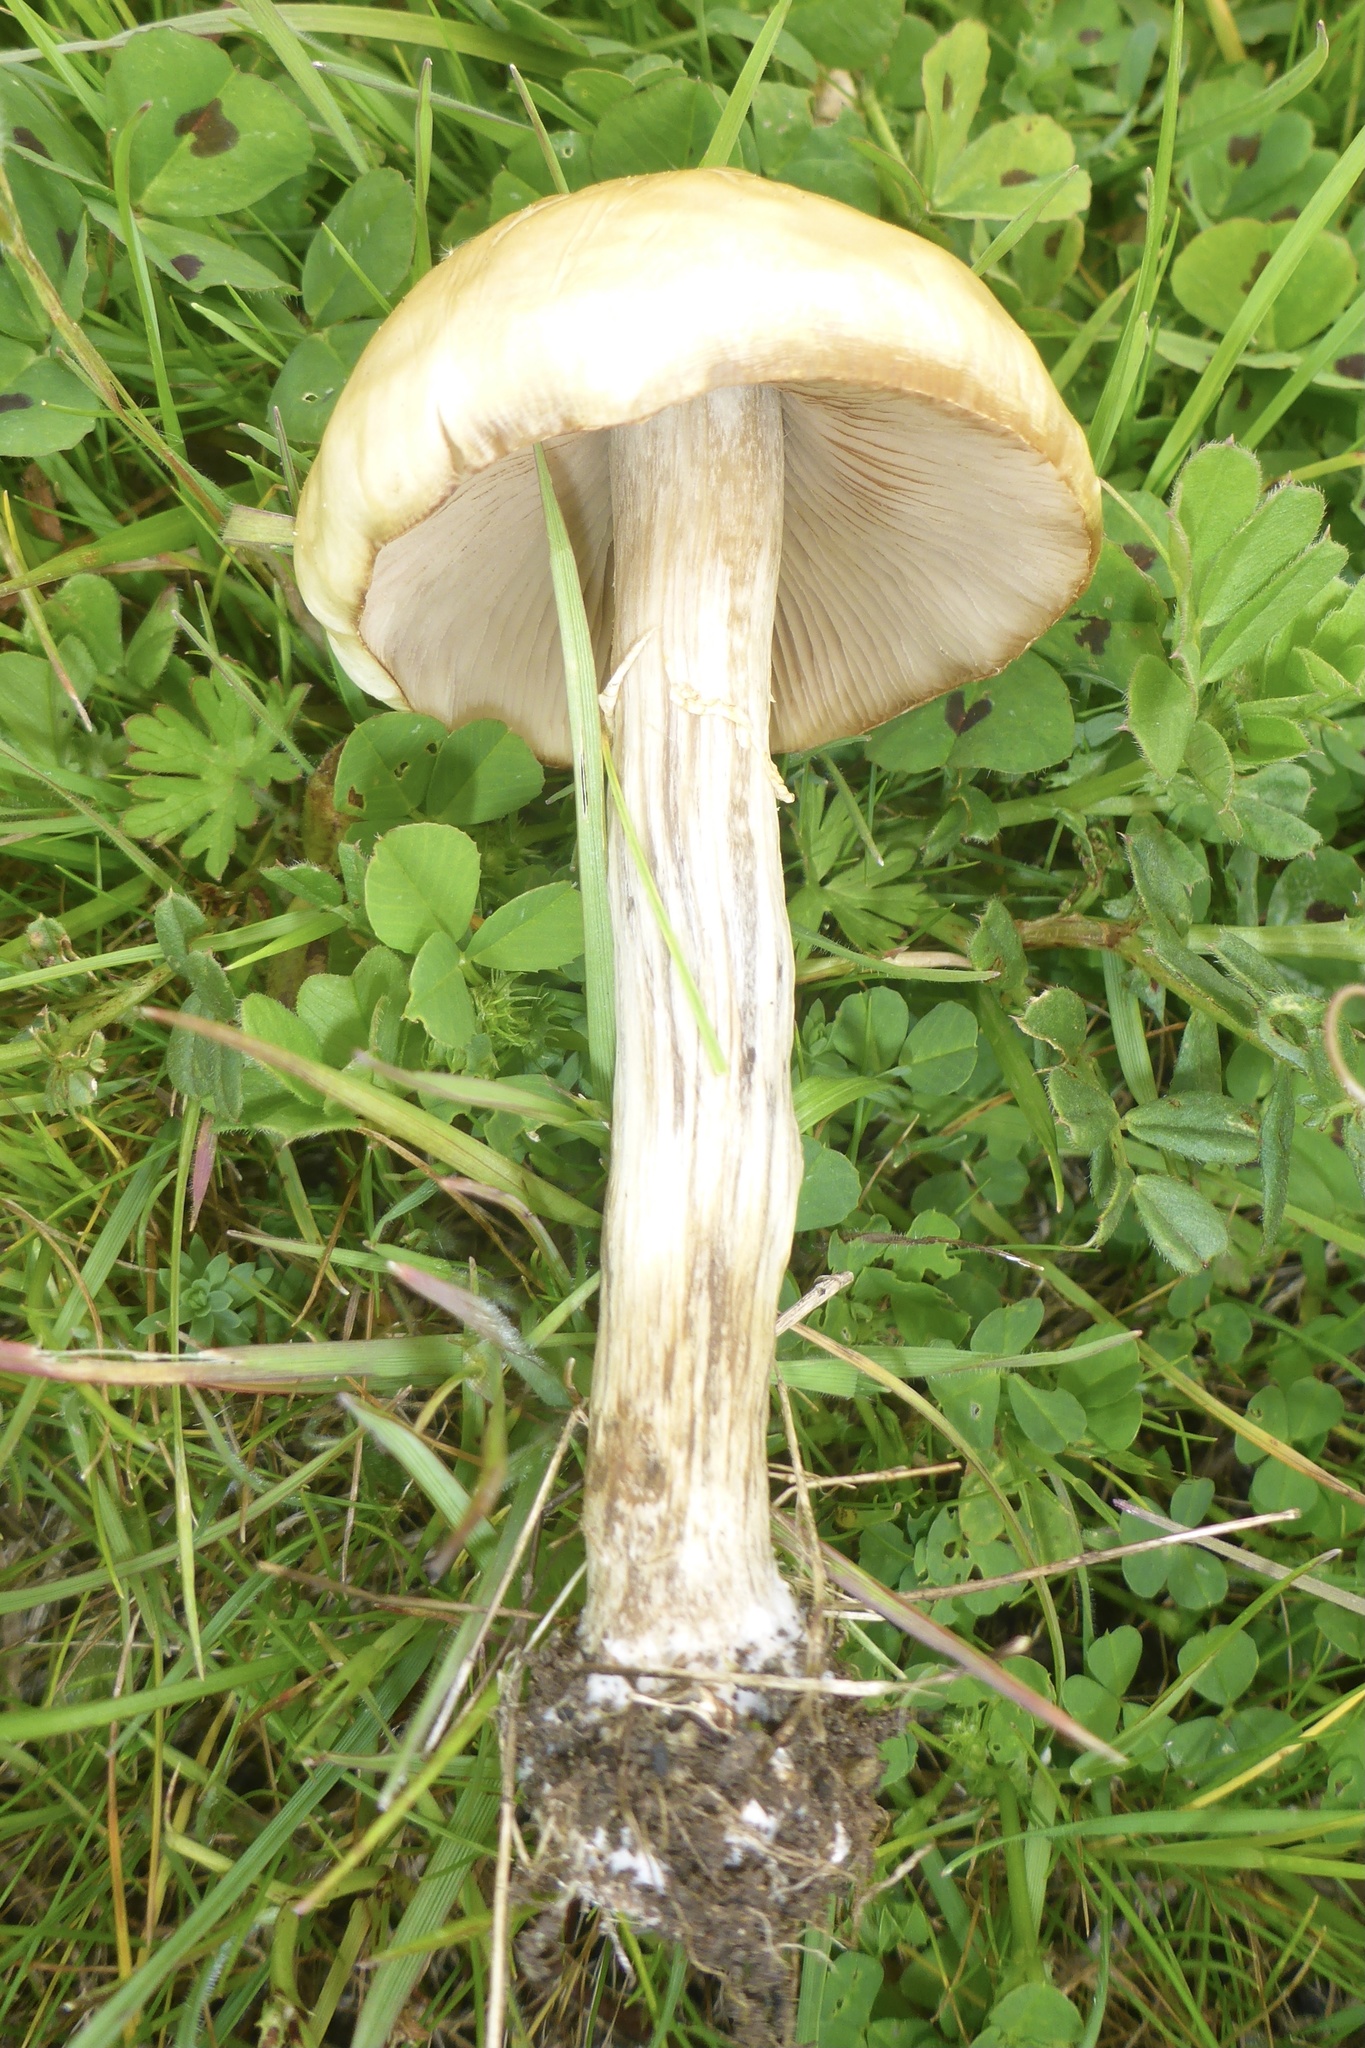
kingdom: Fungi
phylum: Basidiomycota
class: Agaricomycetes
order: Agaricales
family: Strophariaceae
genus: Agrocybe
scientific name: Agrocybe praecox
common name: Spring fieldcap
